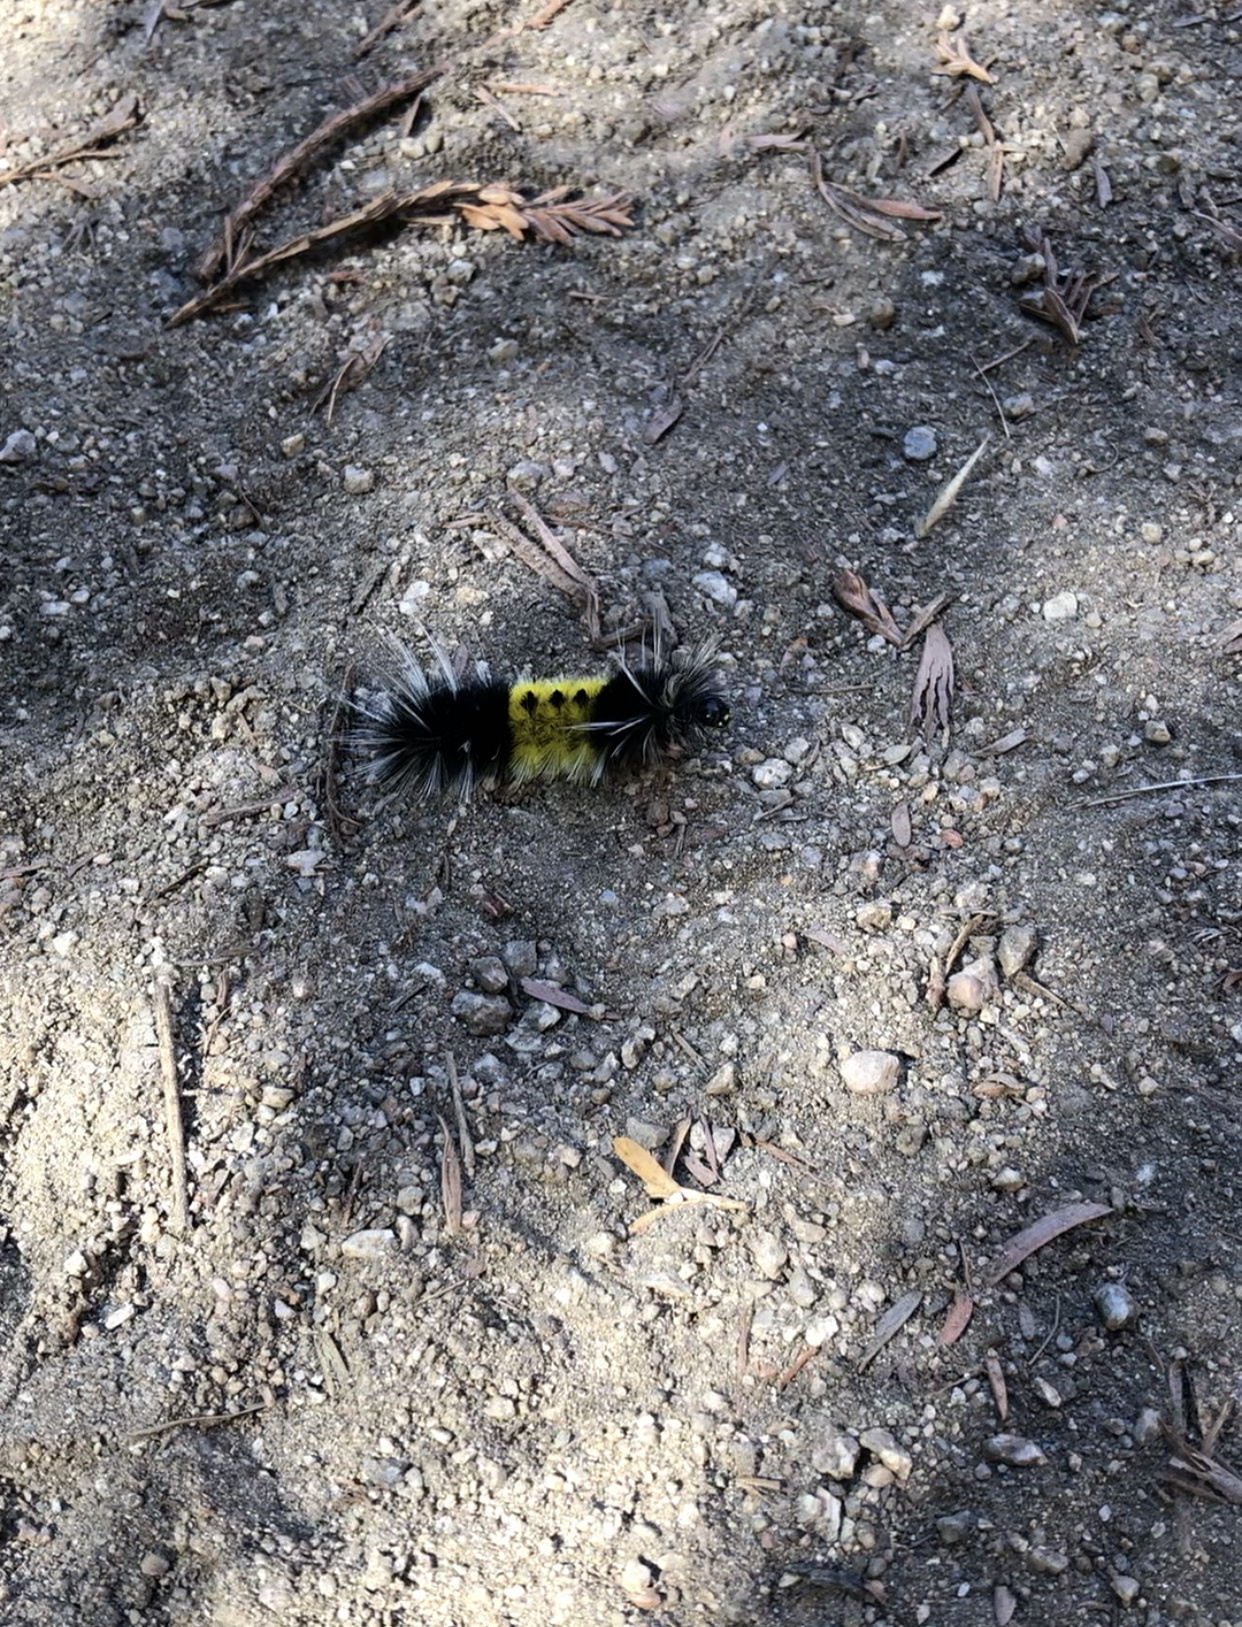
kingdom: Animalia
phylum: Arthropoda
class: Insecta
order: Lepidoptera
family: Erebidae
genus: Lophocampa
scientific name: Lophocampa maculata
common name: Spotted tussock moth
